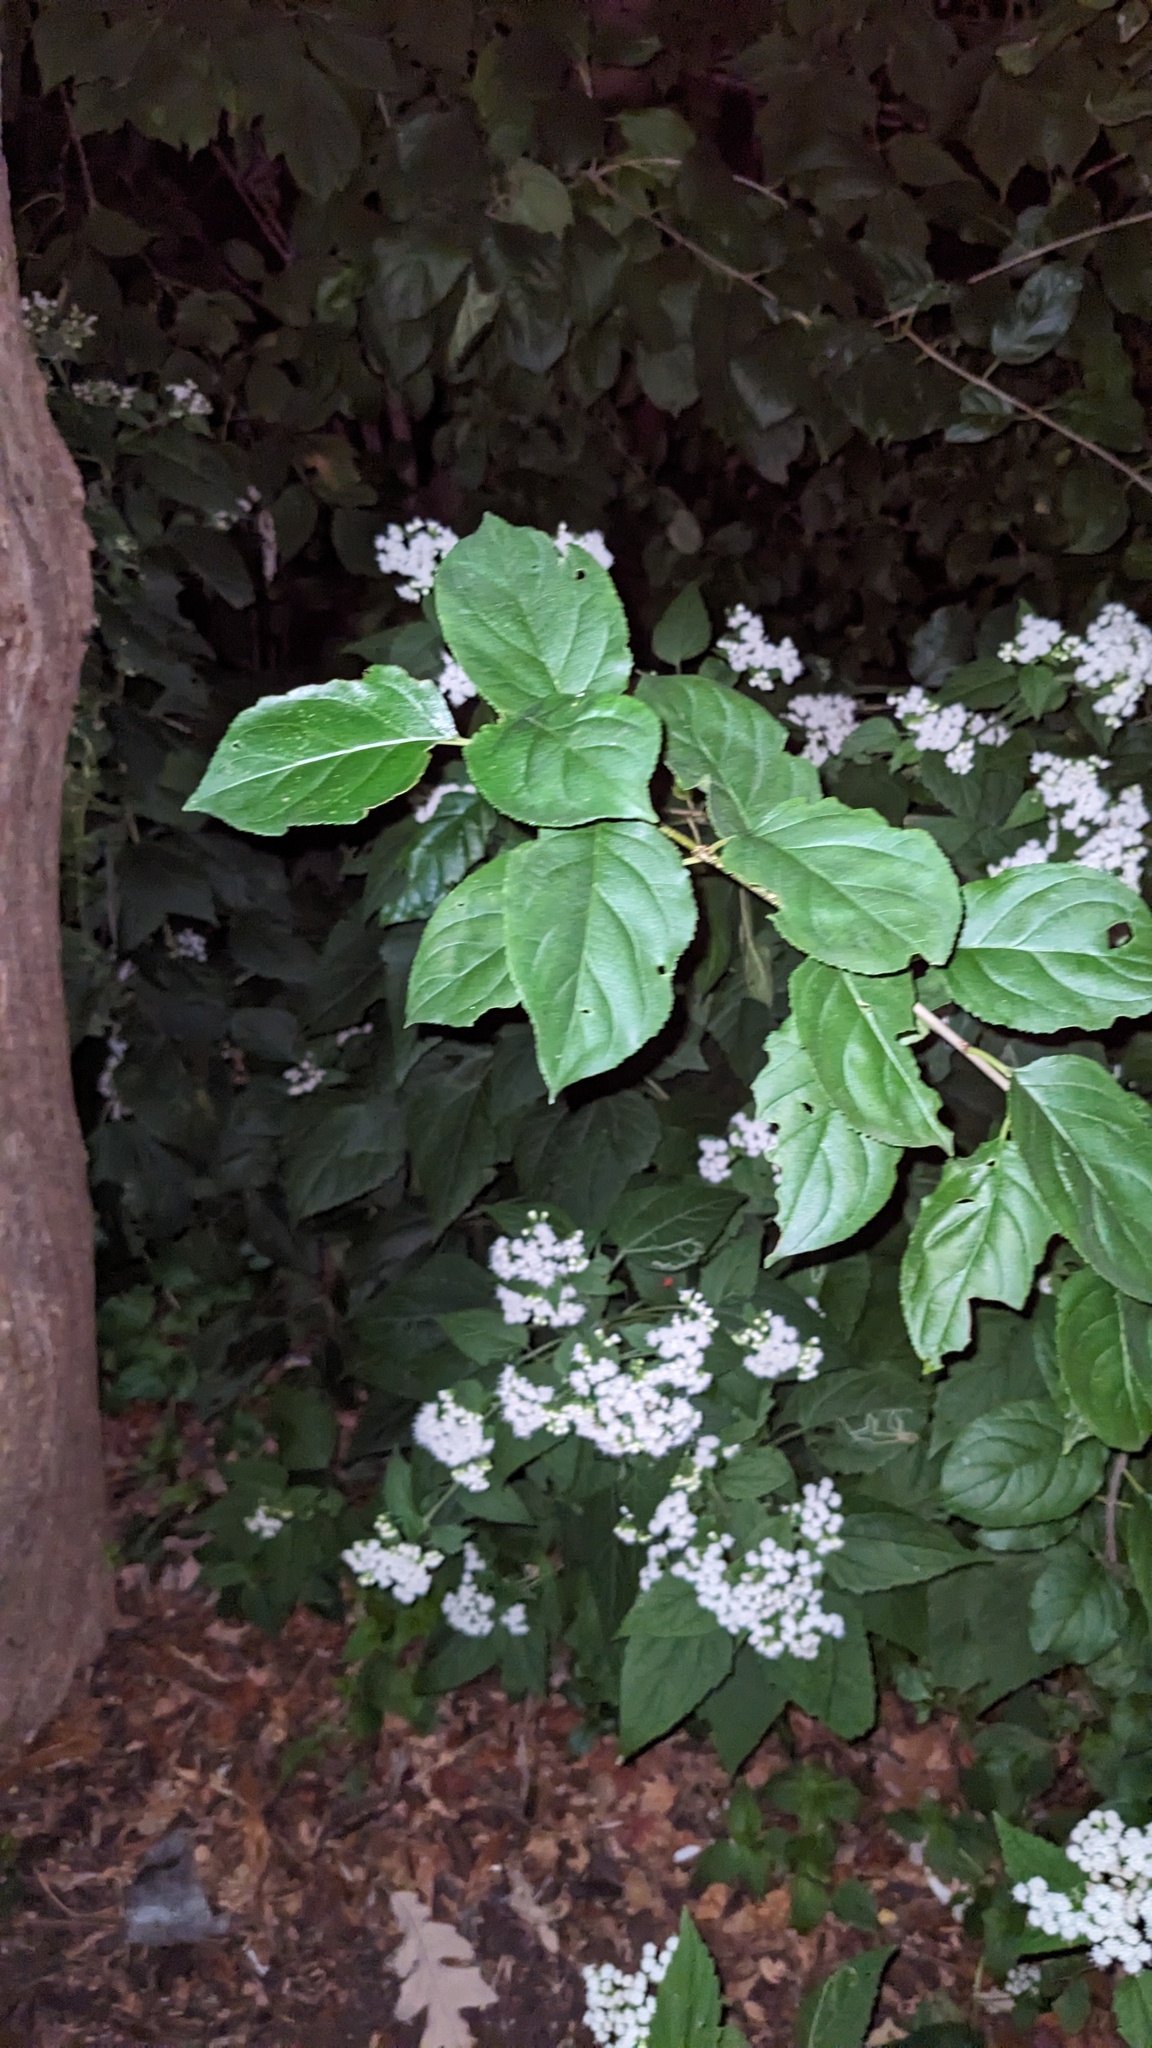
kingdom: Plantae
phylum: Tracheophyta
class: Magnoliopsida
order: Rosales
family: Rhamnaceae
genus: Rhamnus
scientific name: Rhamnus cathartica
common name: Common buckthorn
